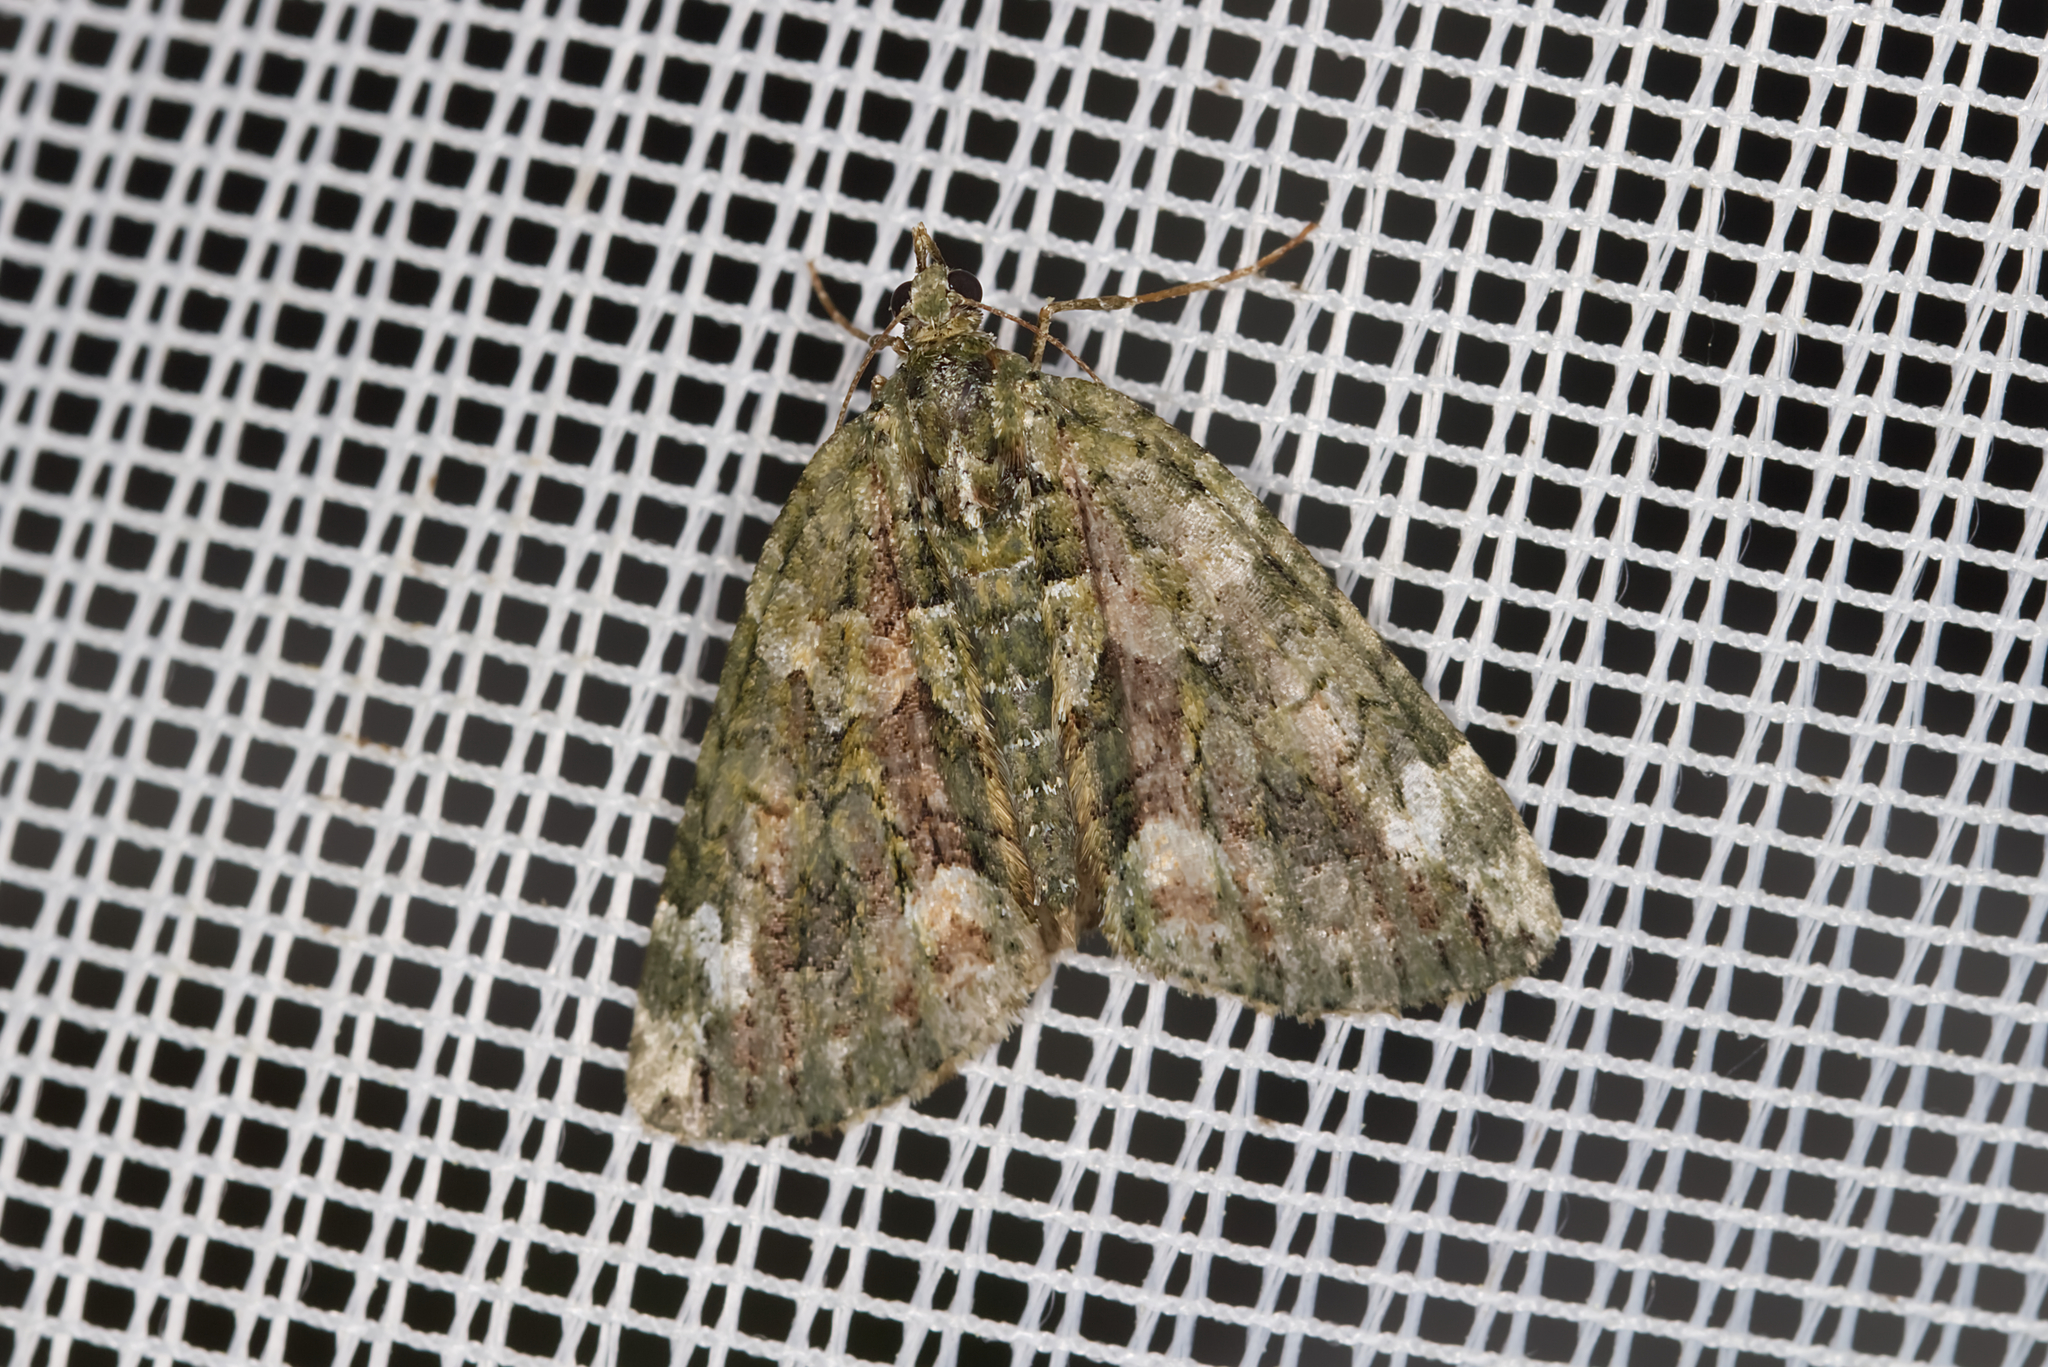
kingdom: Animalia
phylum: Arthropoda
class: Insecta
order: Lepidoptera
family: Geometridae
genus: Chloroclysta
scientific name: Chloroclysta siterata
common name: Red-green carpet
